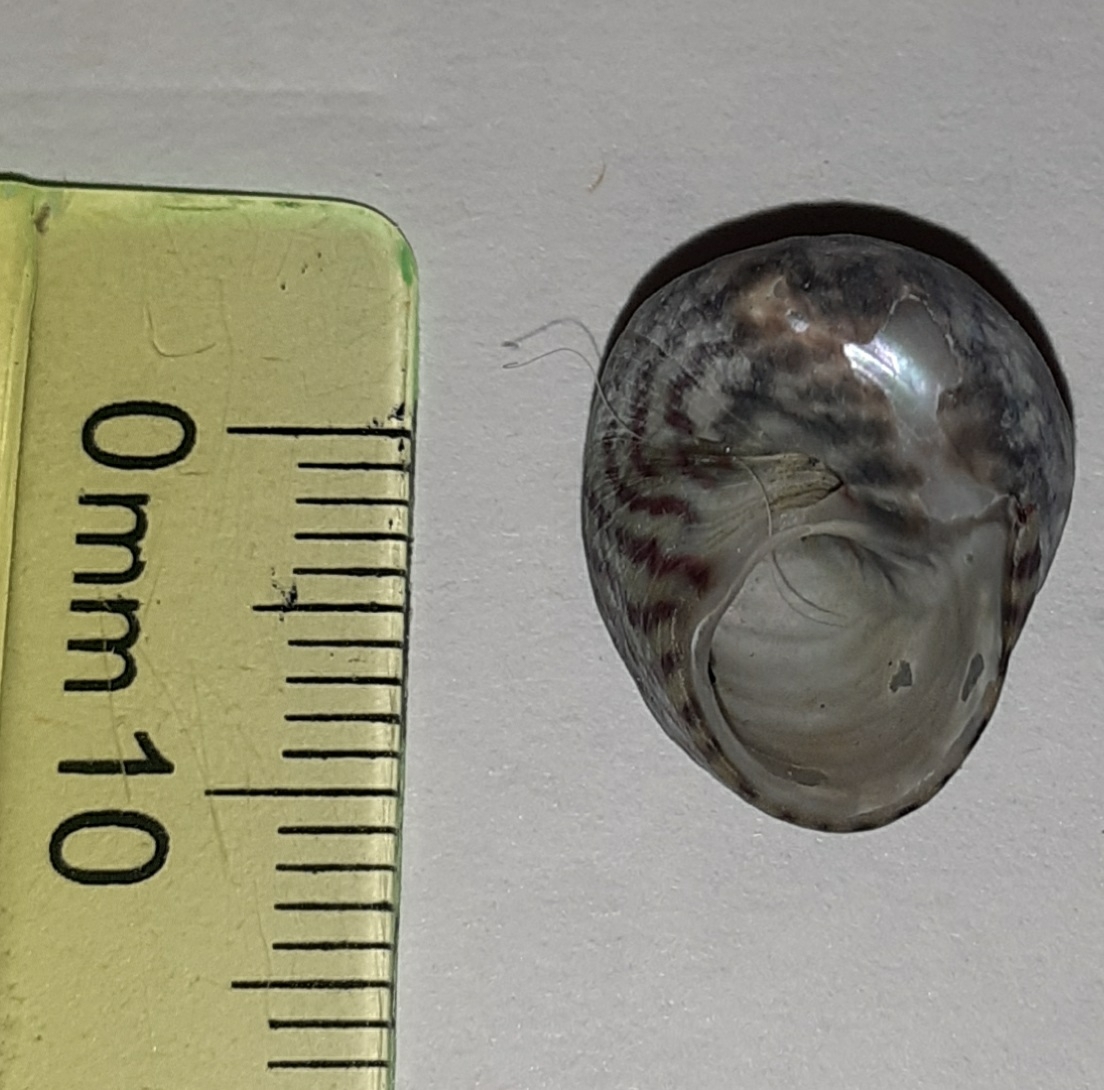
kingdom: Animalia
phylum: Mollusca
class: Gastropoda
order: Trochida
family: Trochidae
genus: Steromphala
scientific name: Steromphala umbilicalis
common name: Flat top shell
